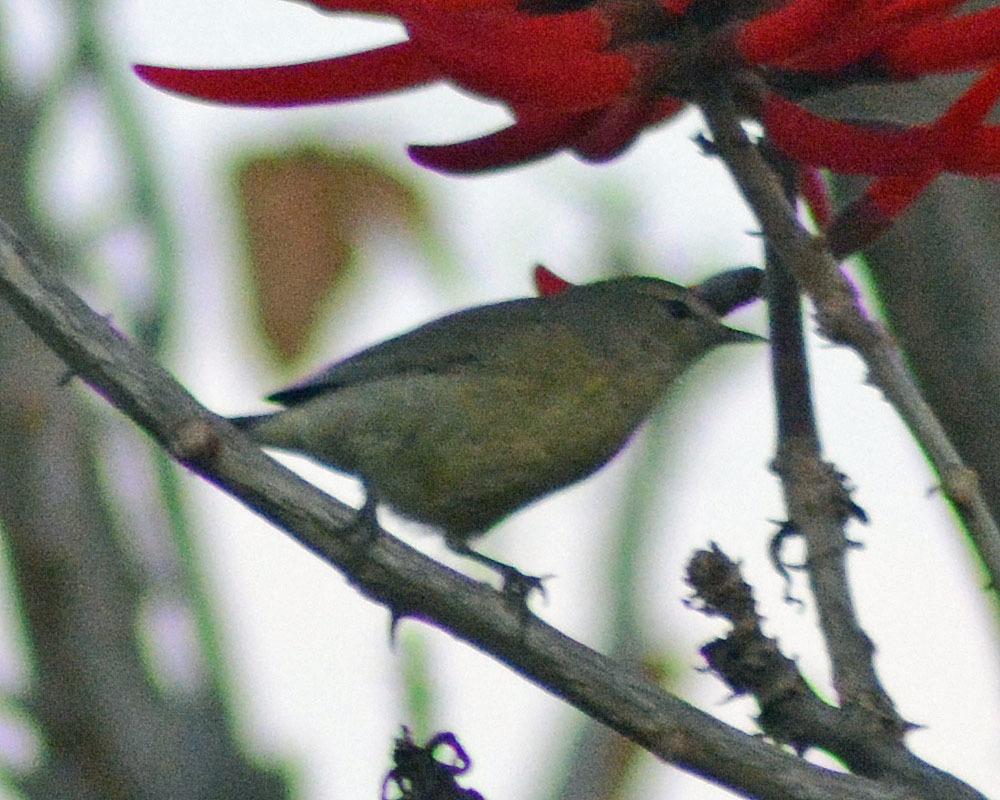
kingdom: Animalia
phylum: Chordata
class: Aves
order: Passeriformes
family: Parulidae
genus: Leiothlypis
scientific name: Leiothlypis celata
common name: Orange-crowned warbler
